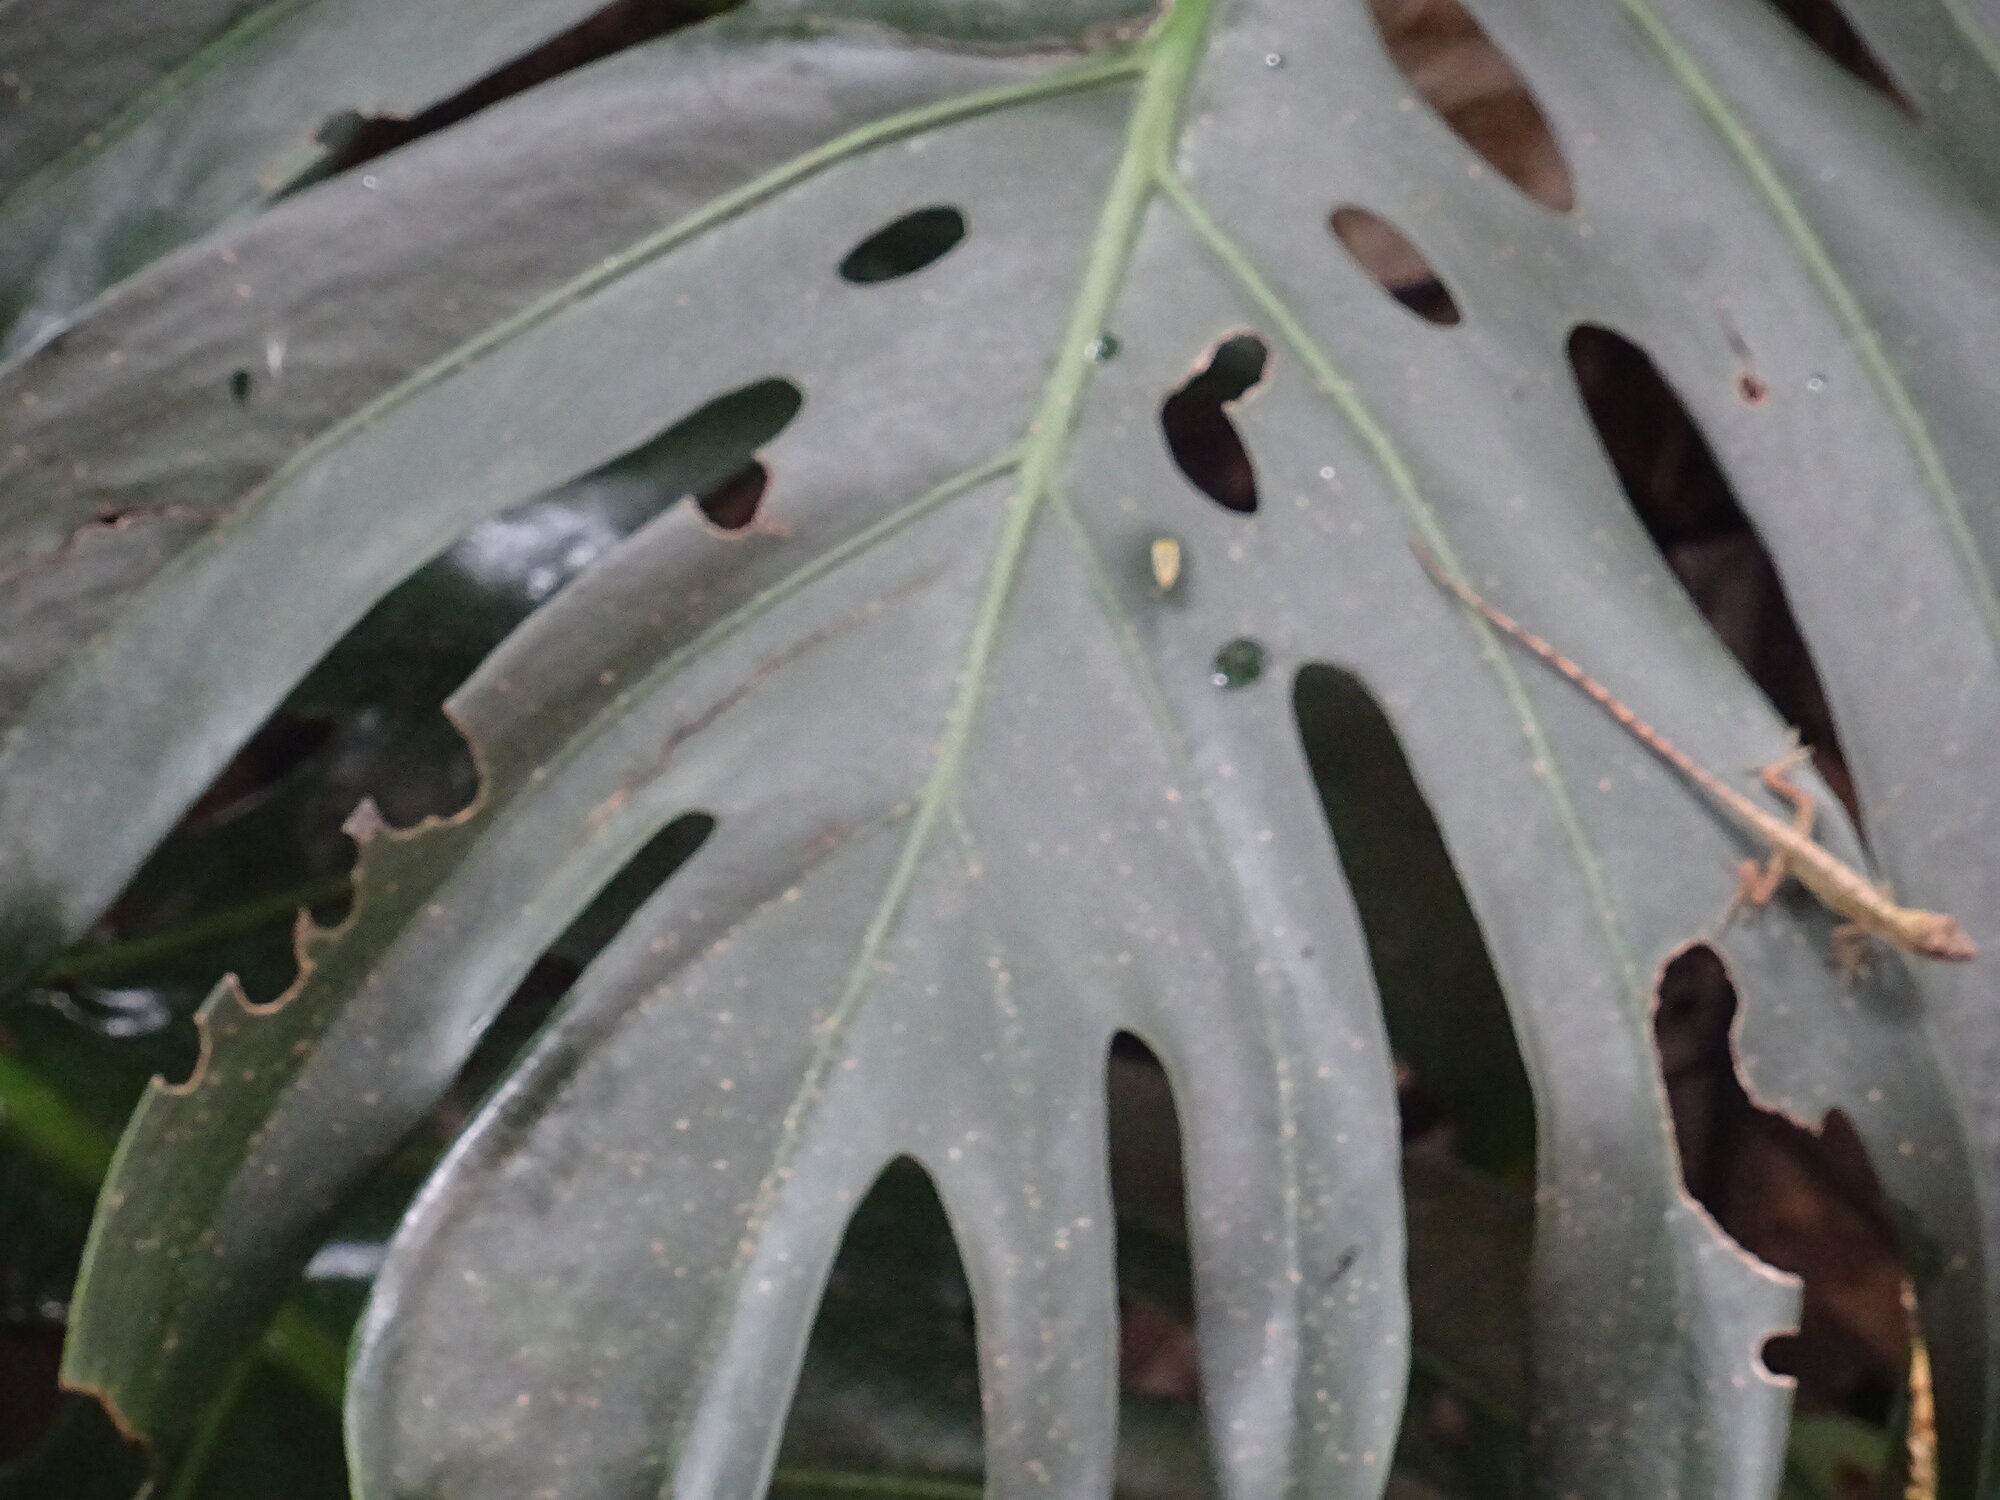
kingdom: Animalia
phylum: Chordata
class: Squamata
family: Dactyloidae
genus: Anolis
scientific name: Anolis mariarum
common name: Blemished anole
